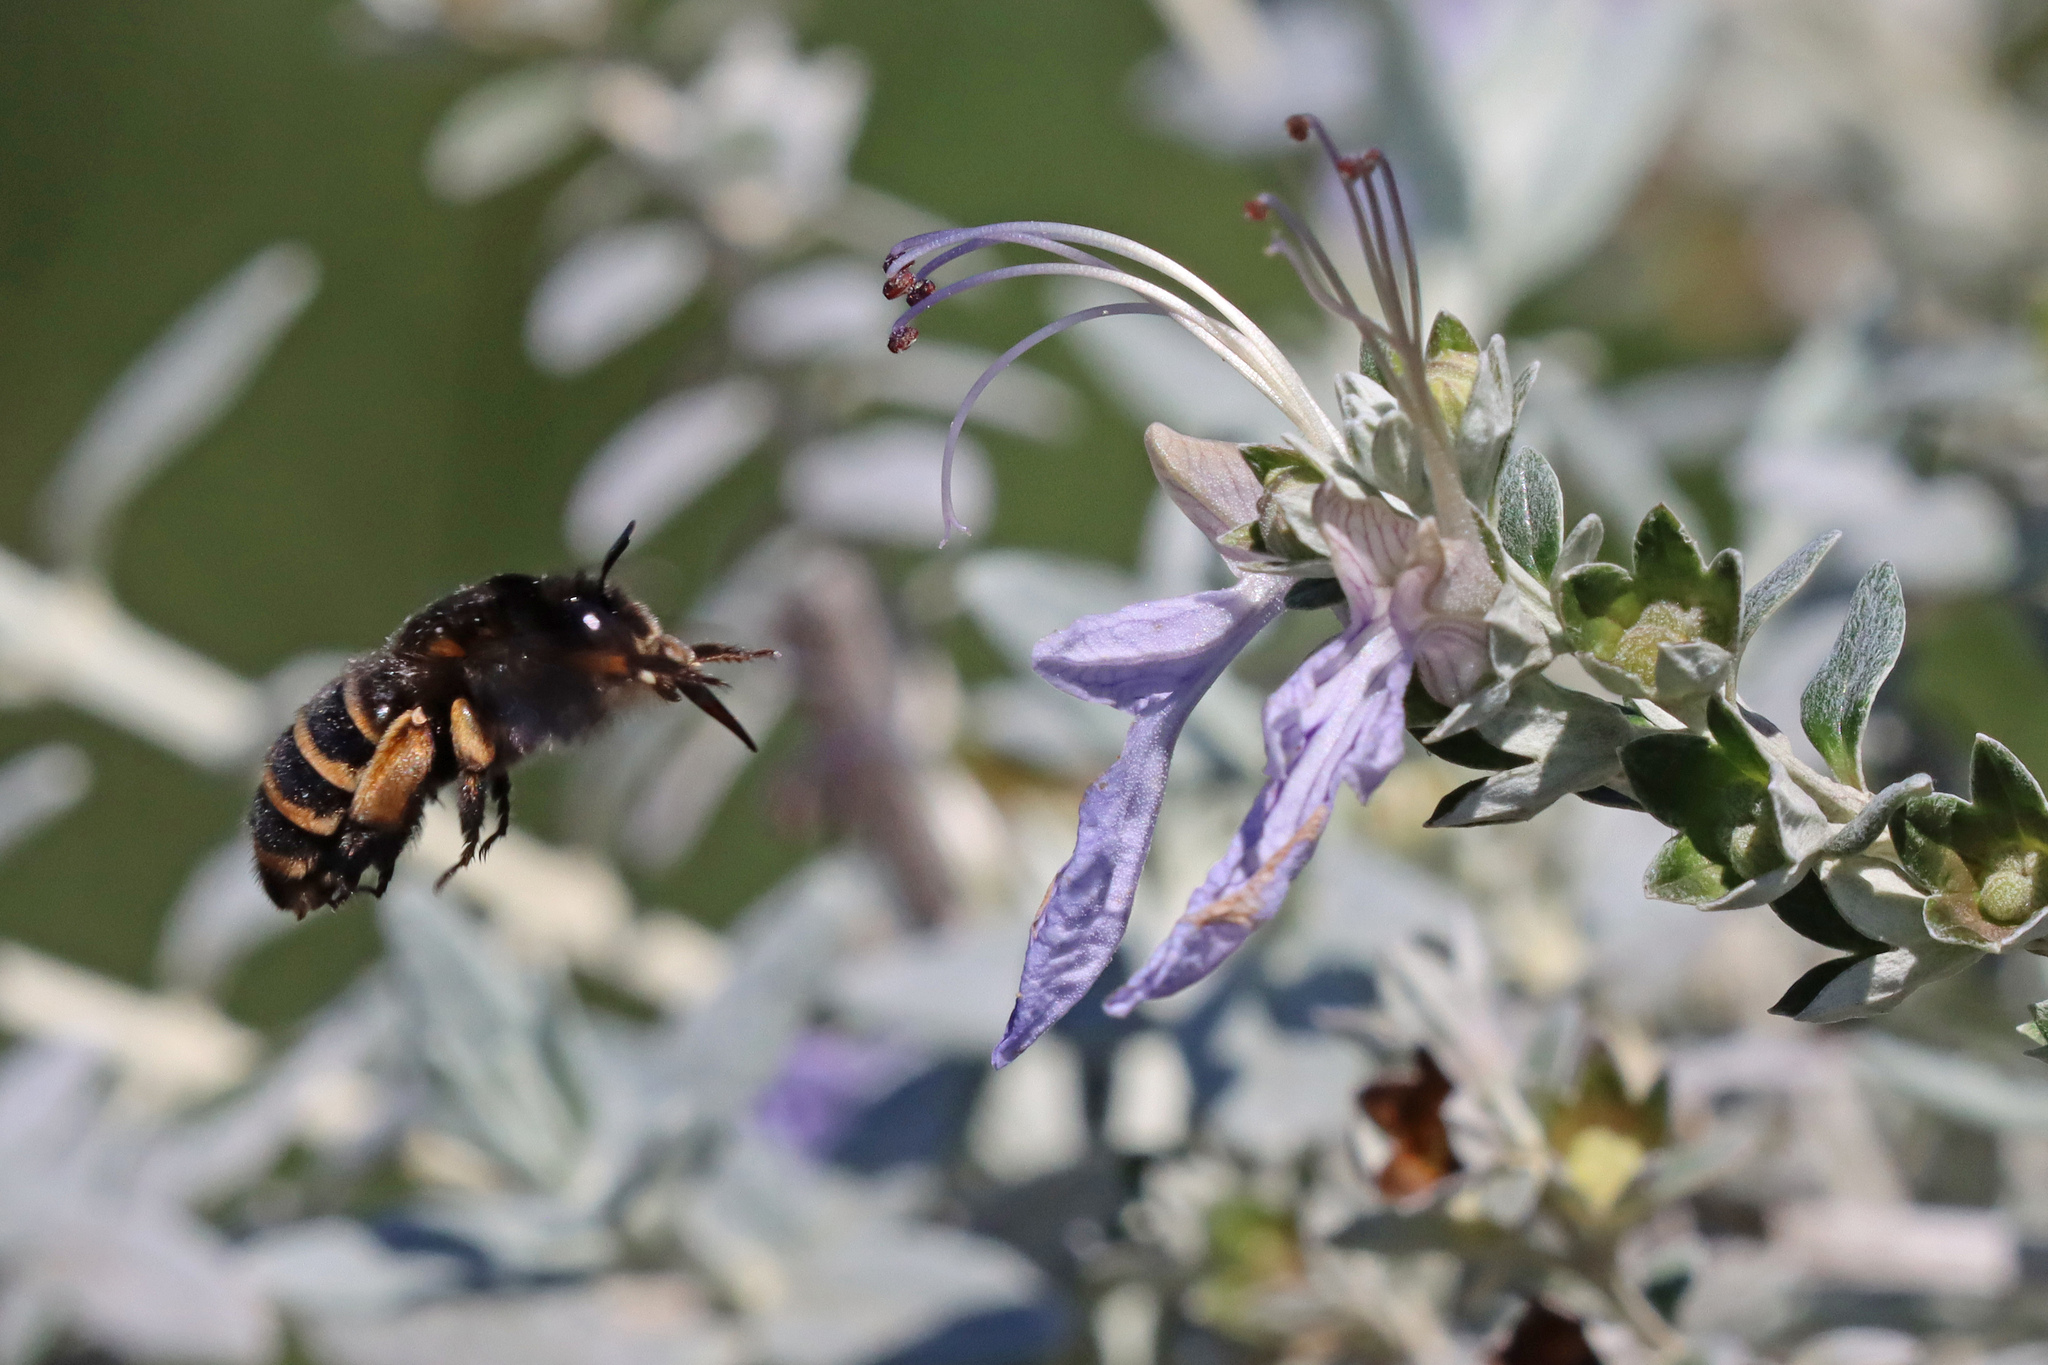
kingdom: Animalia
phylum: Arthropoda
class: Insecta
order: Hymenoptera
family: Apidae
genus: Amegilla
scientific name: Amegilla quadrifasciata
